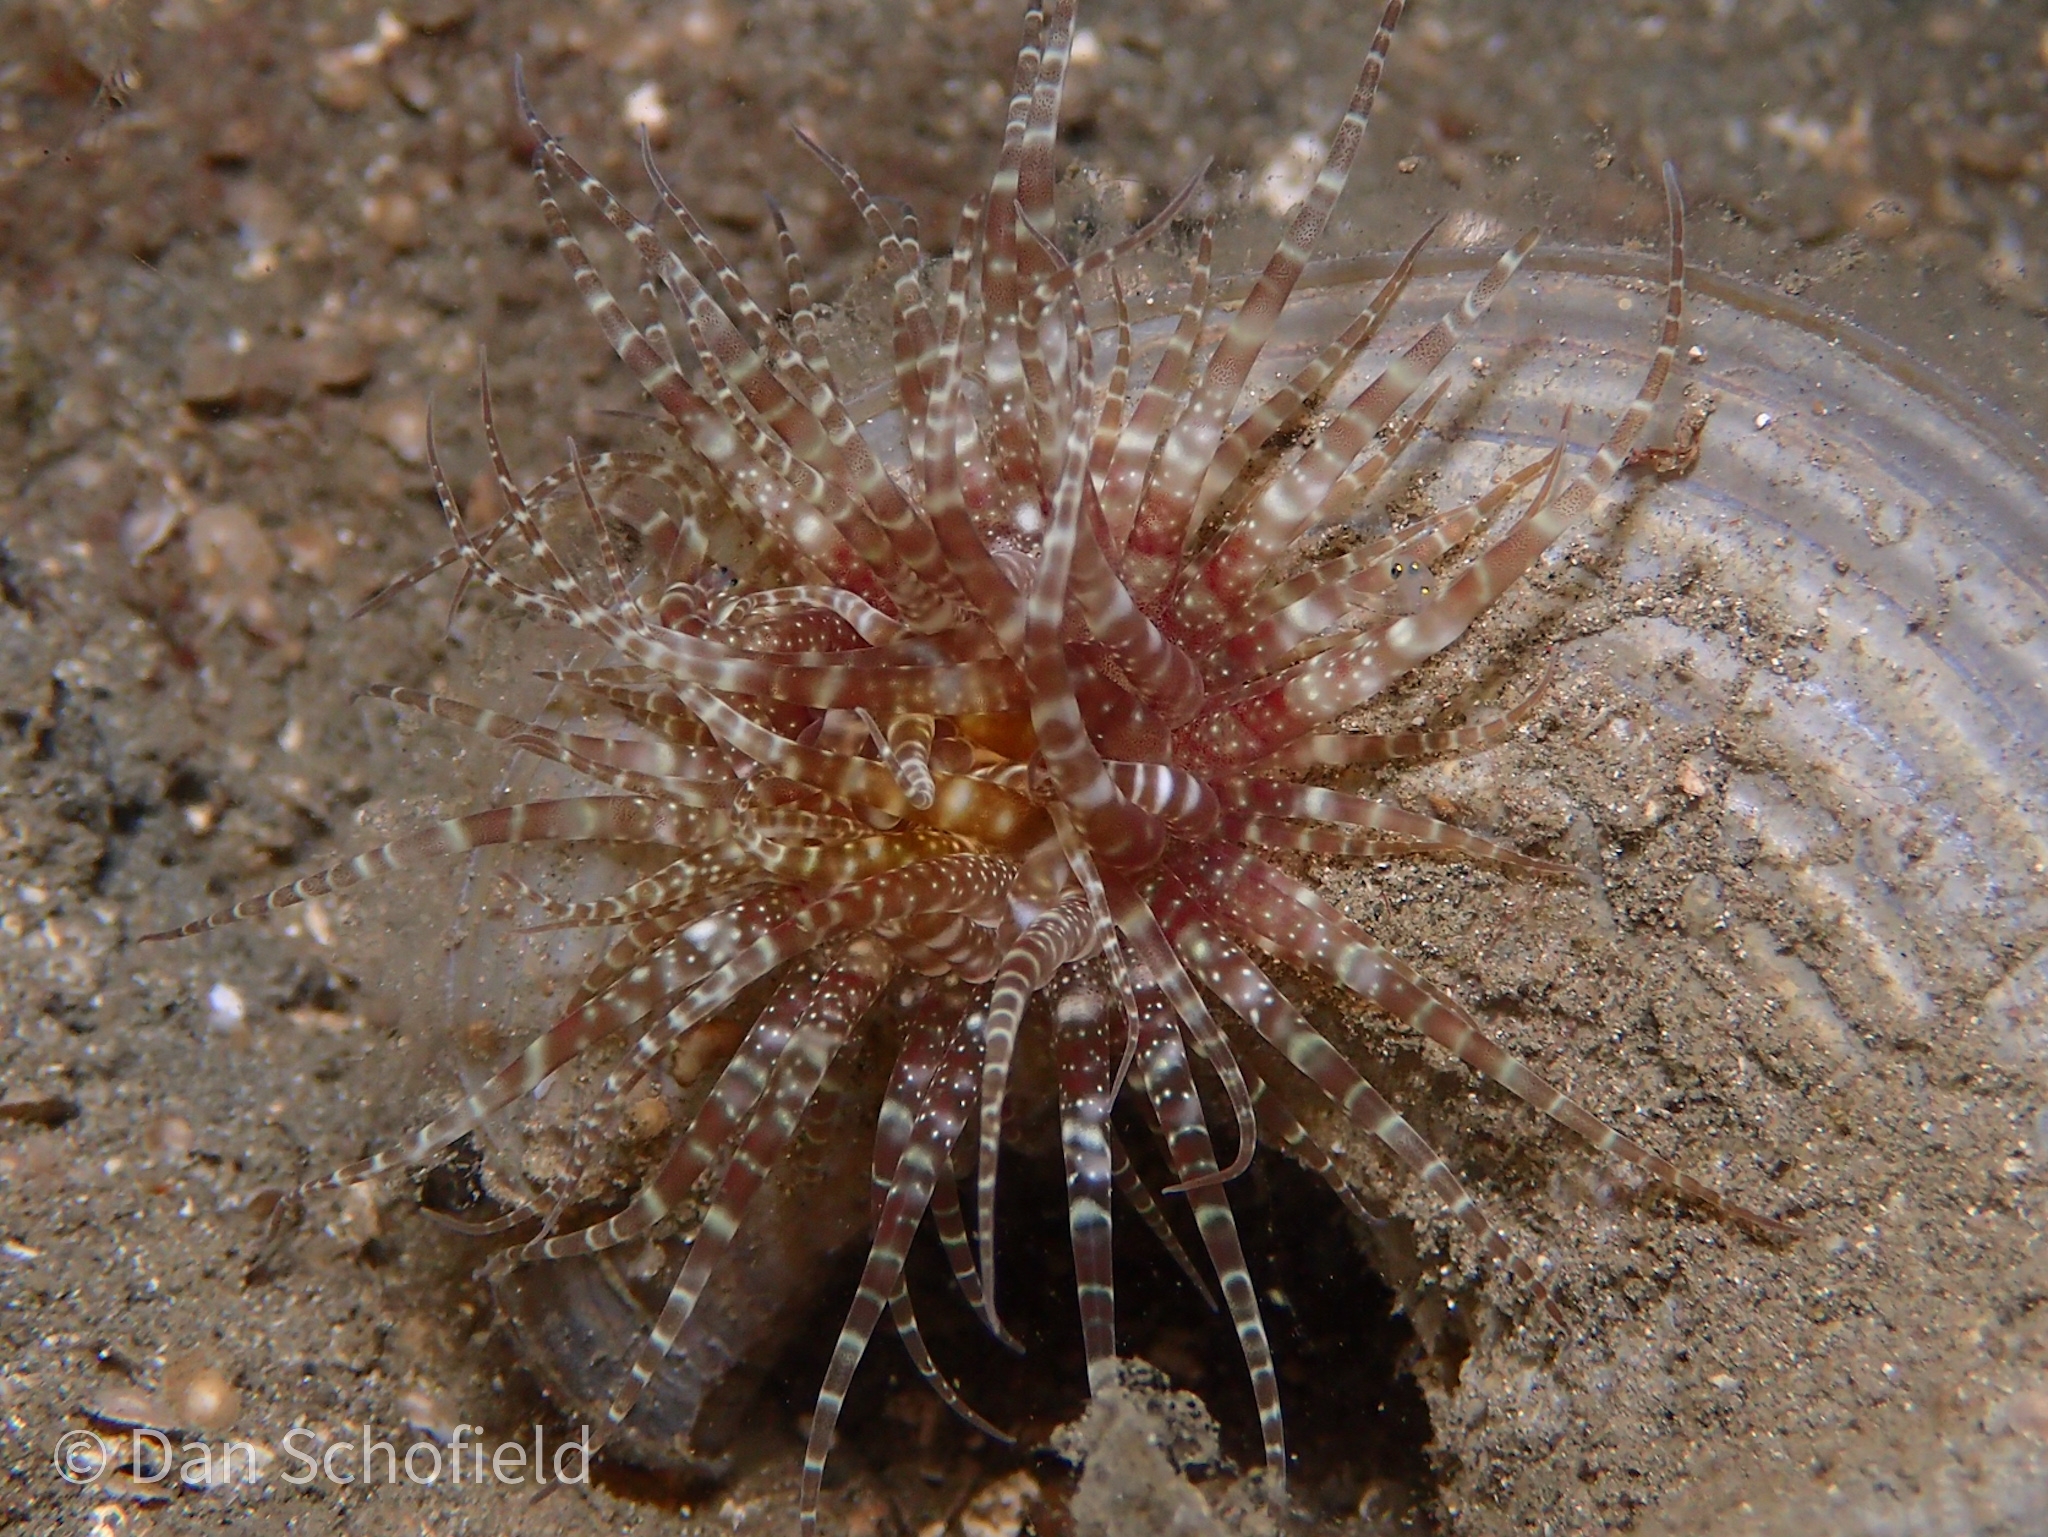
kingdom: Animalia
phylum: Cnidaria
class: Anthozoa
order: Actiniaria
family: Boloceroididae
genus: Boloceroides
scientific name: Boloceroides mcmurrichi
